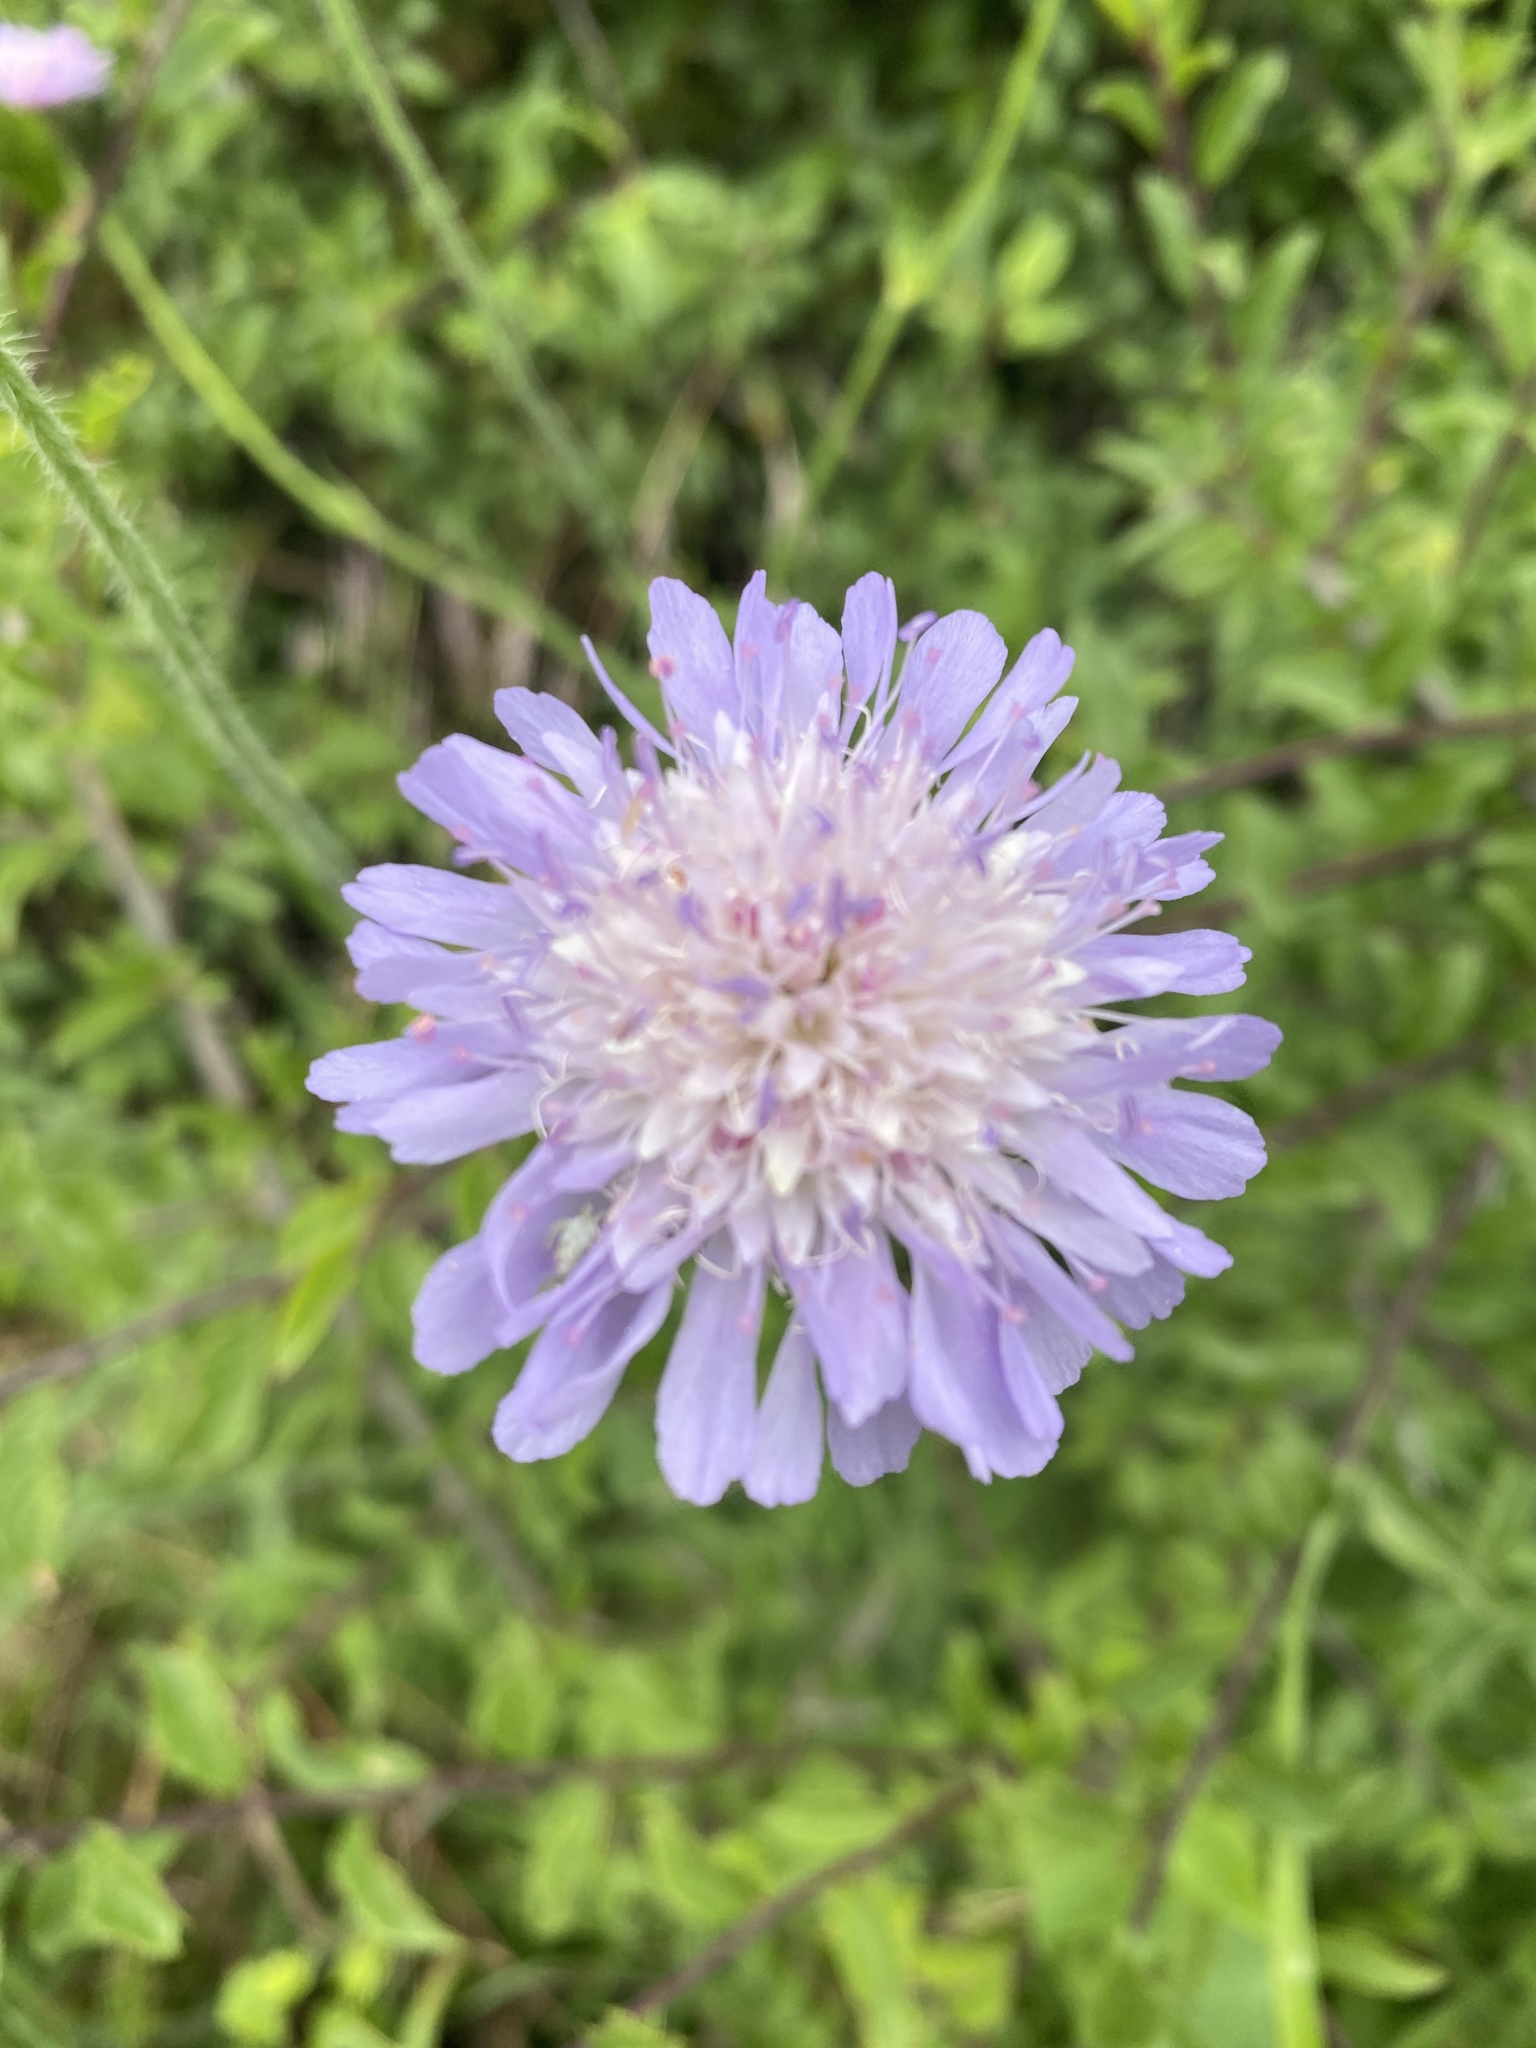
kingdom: Plantae
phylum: Tracheophyta
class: Magnoliopsida
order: Dipsacales
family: Caprifoliaceae
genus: Knautia
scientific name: Knautia arvensis
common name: Field scabiosa
